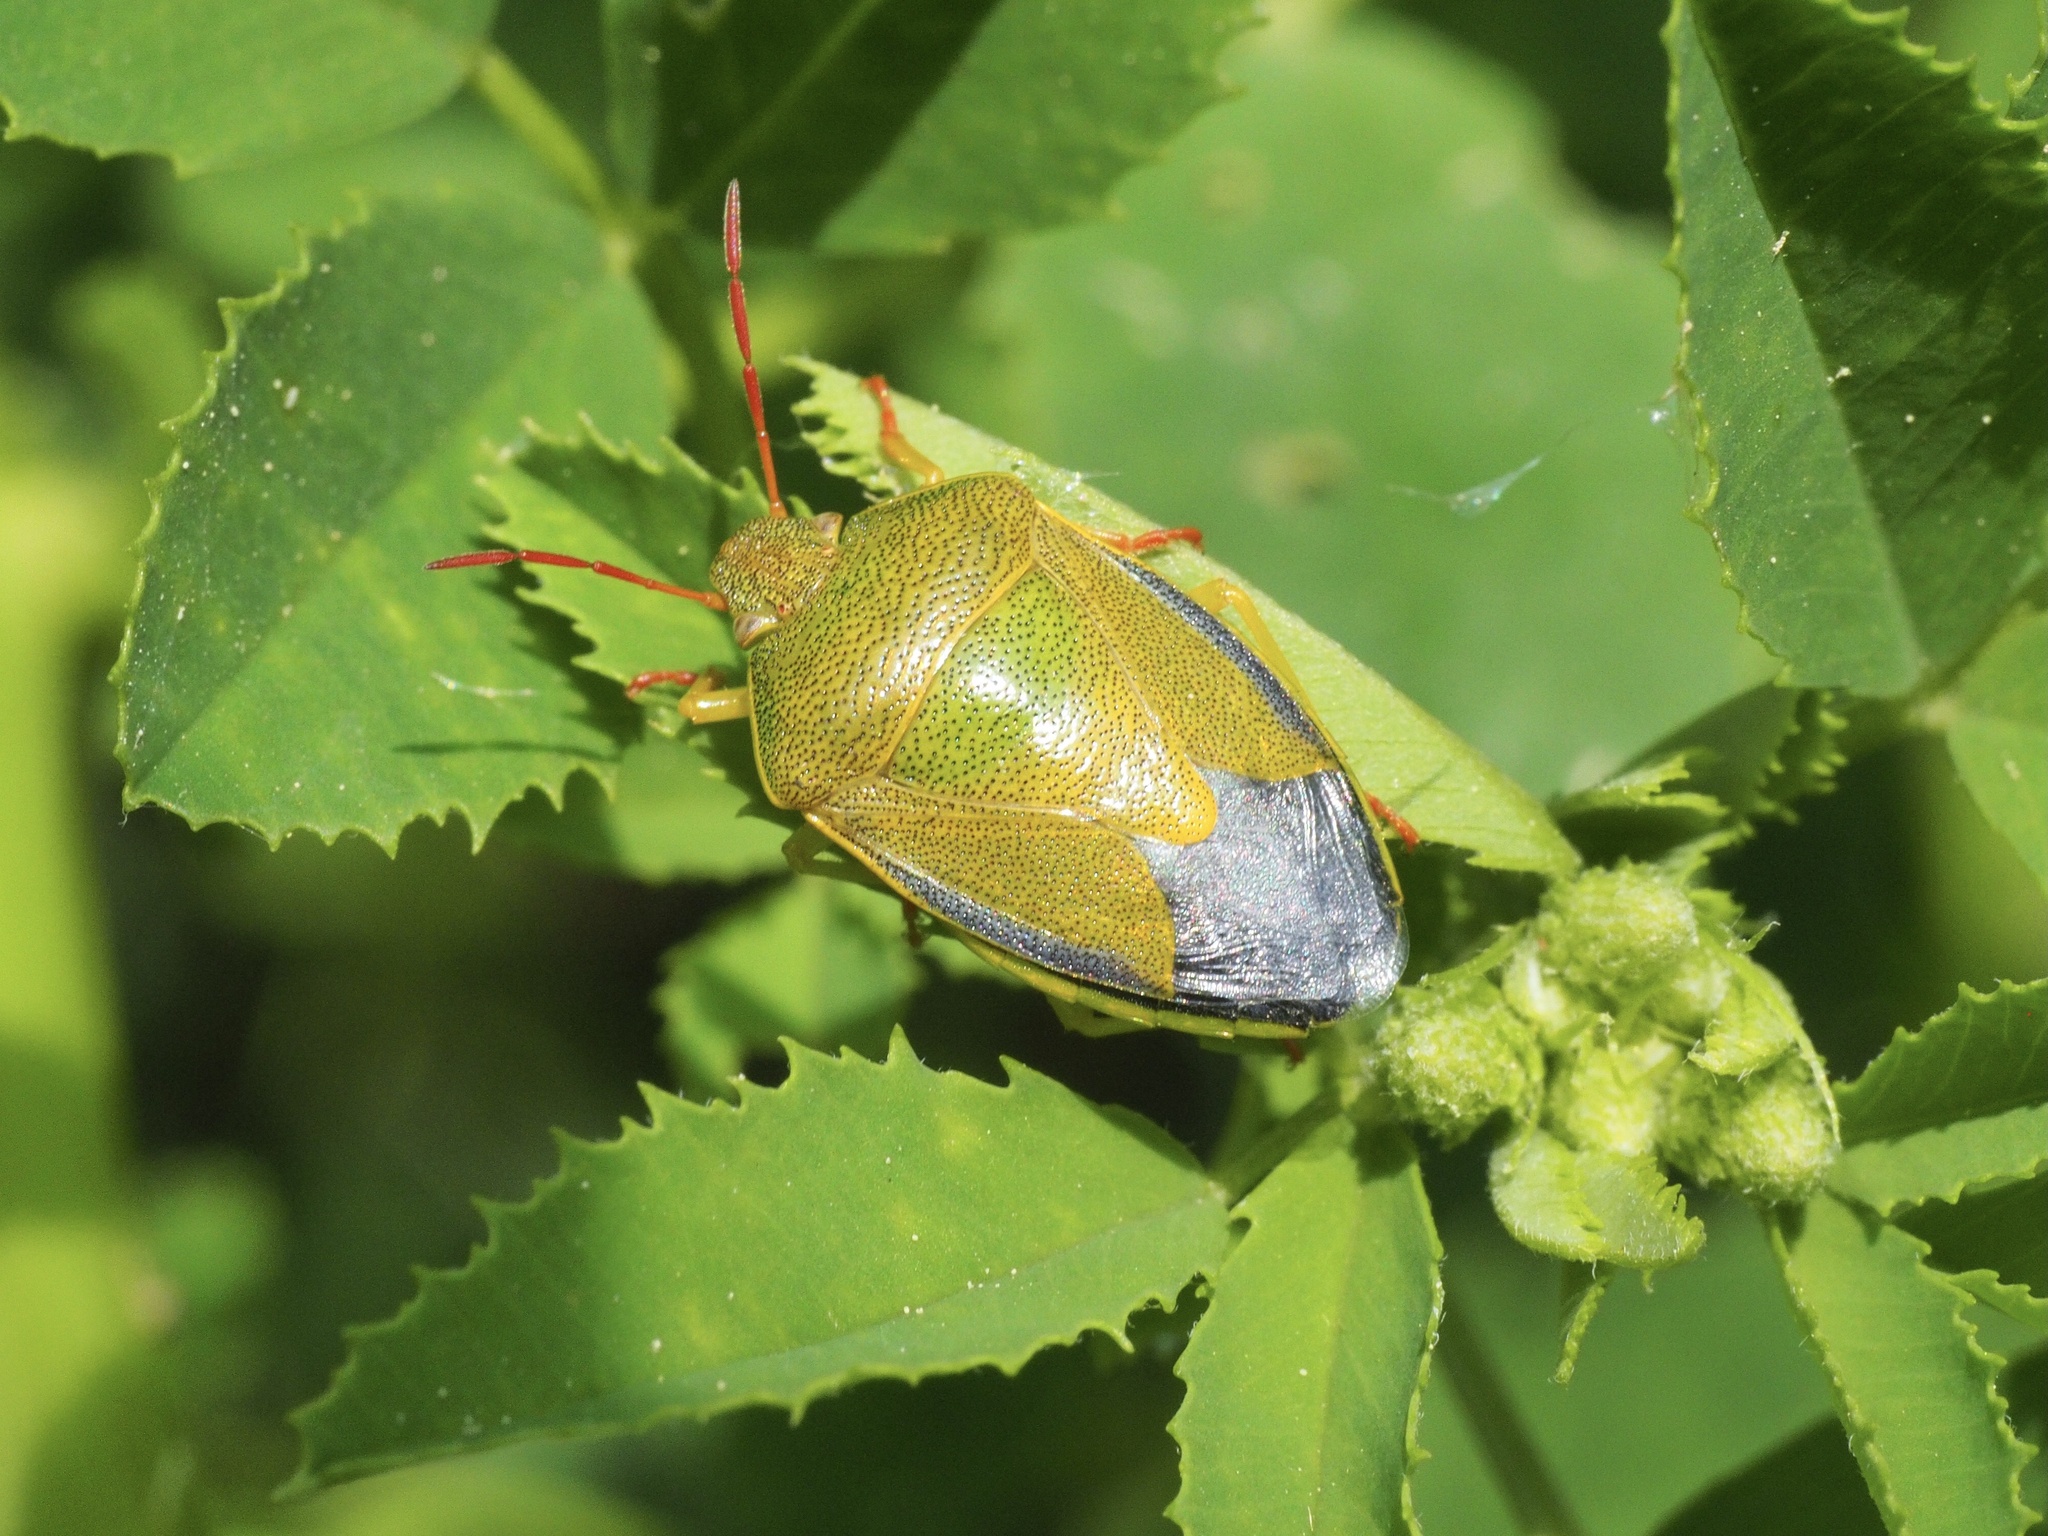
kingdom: Animalia
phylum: Arthropoda
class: Insecta
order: Hemiptera
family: Pentatomidae
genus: Piezodorus
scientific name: Piezodorus lituratus
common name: Stink bug
